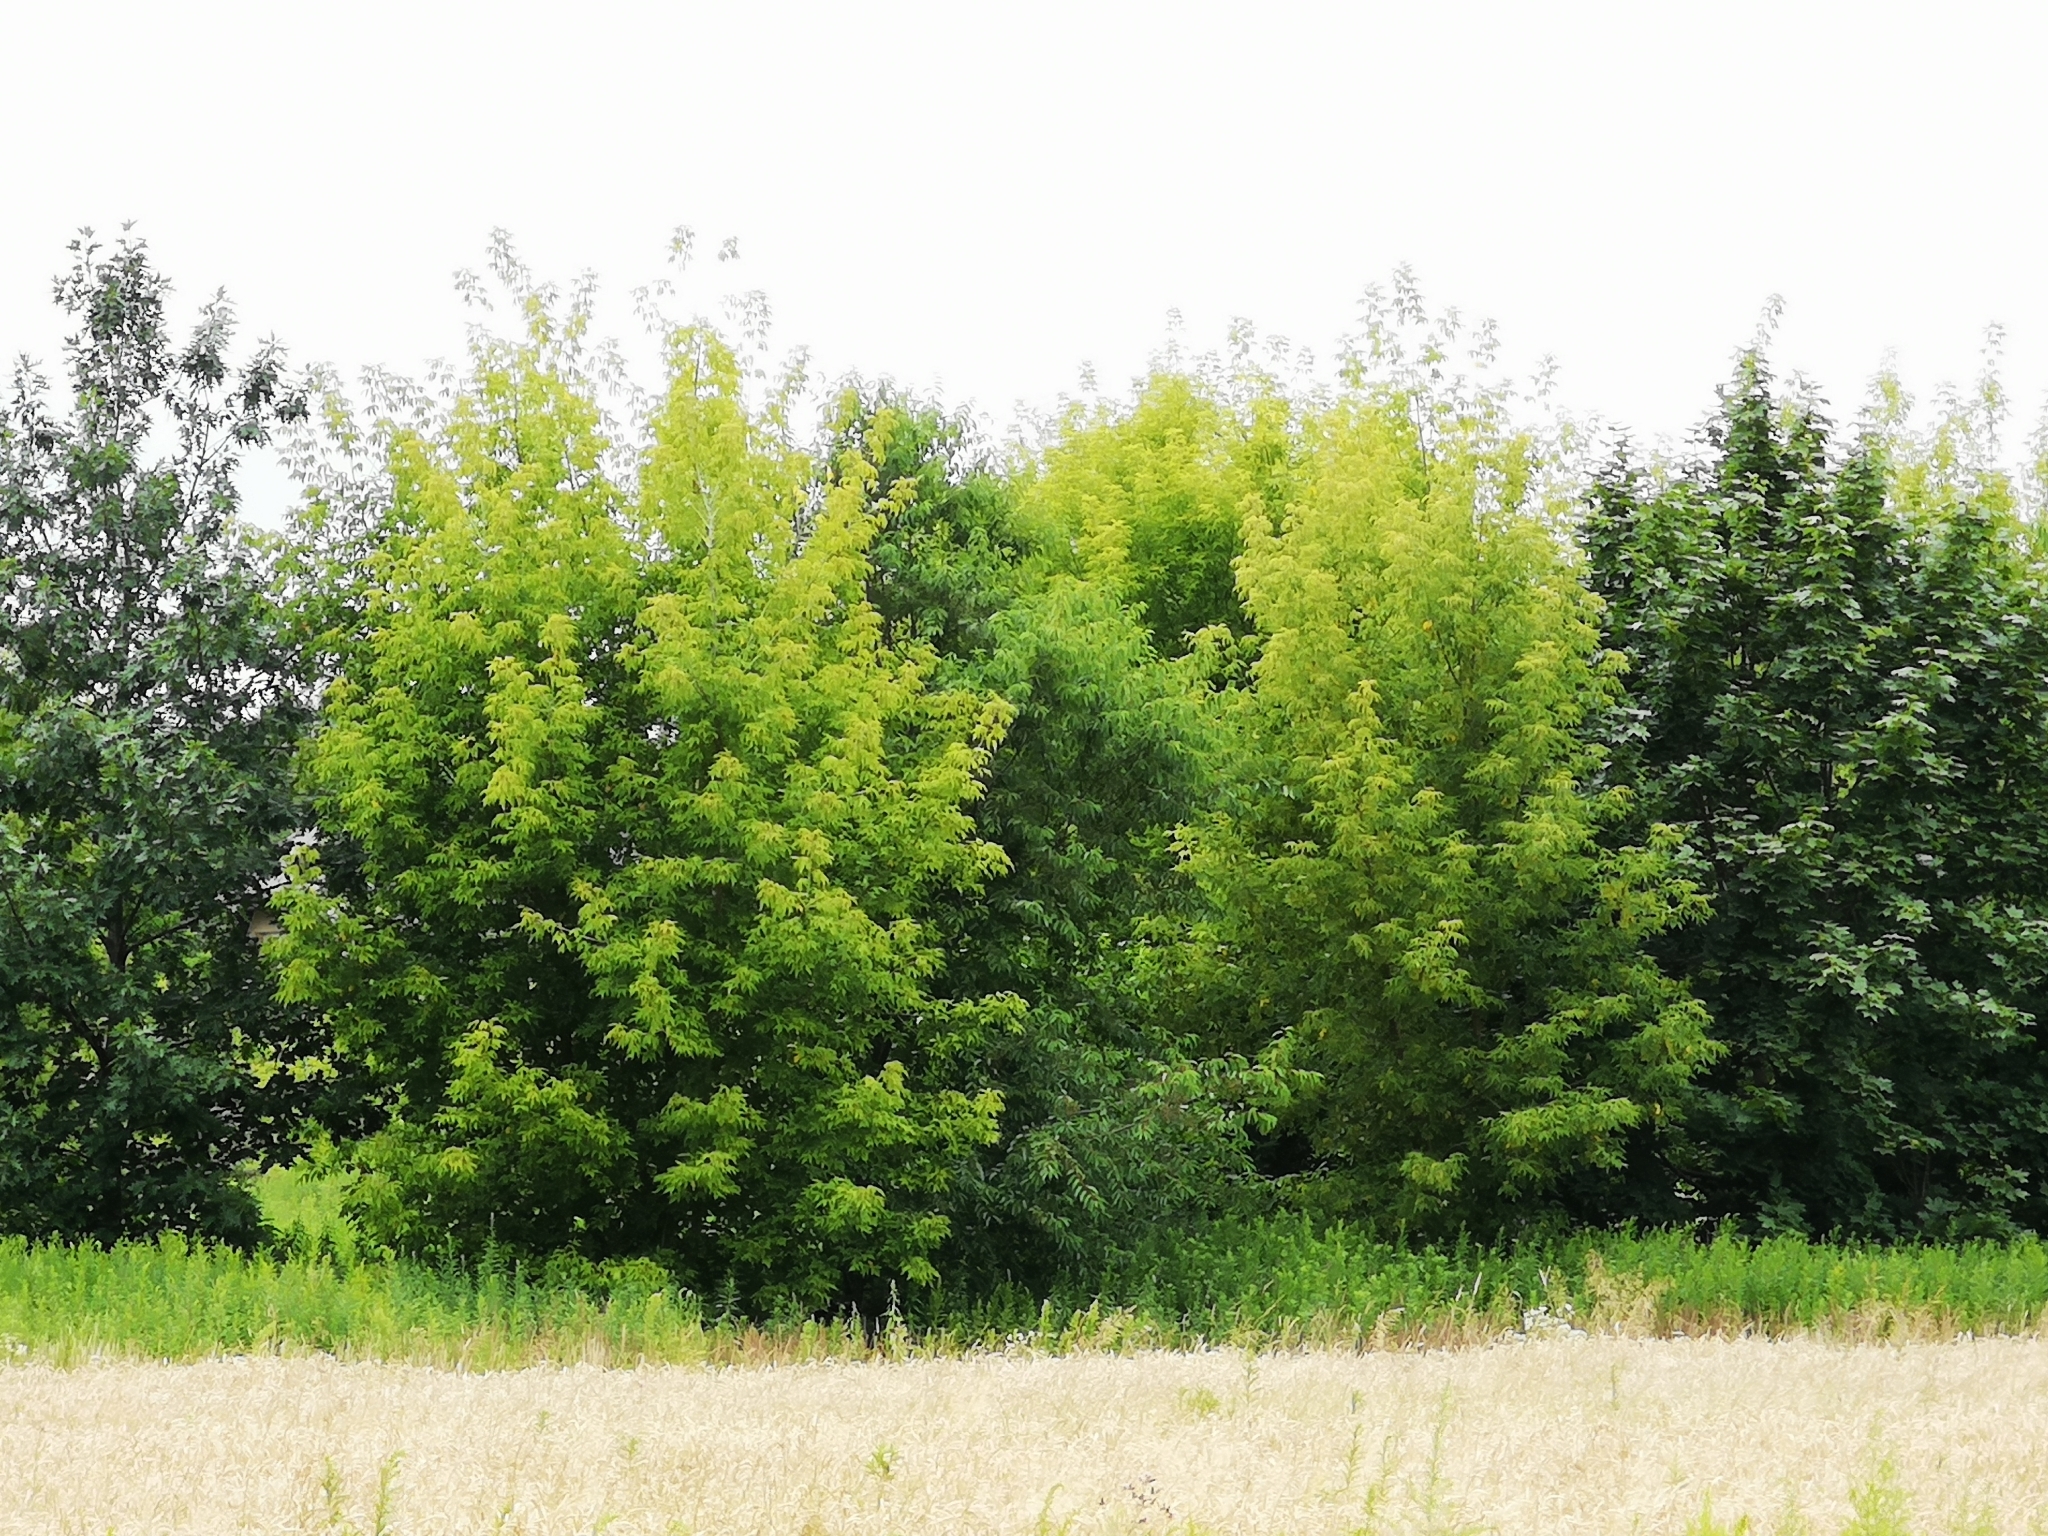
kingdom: Plantae
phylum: Tracheophyta
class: Magnoliopsida
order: Sapindales
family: Sapindaceae
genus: Acer
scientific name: Acer negundo
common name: Ashleaf maple
